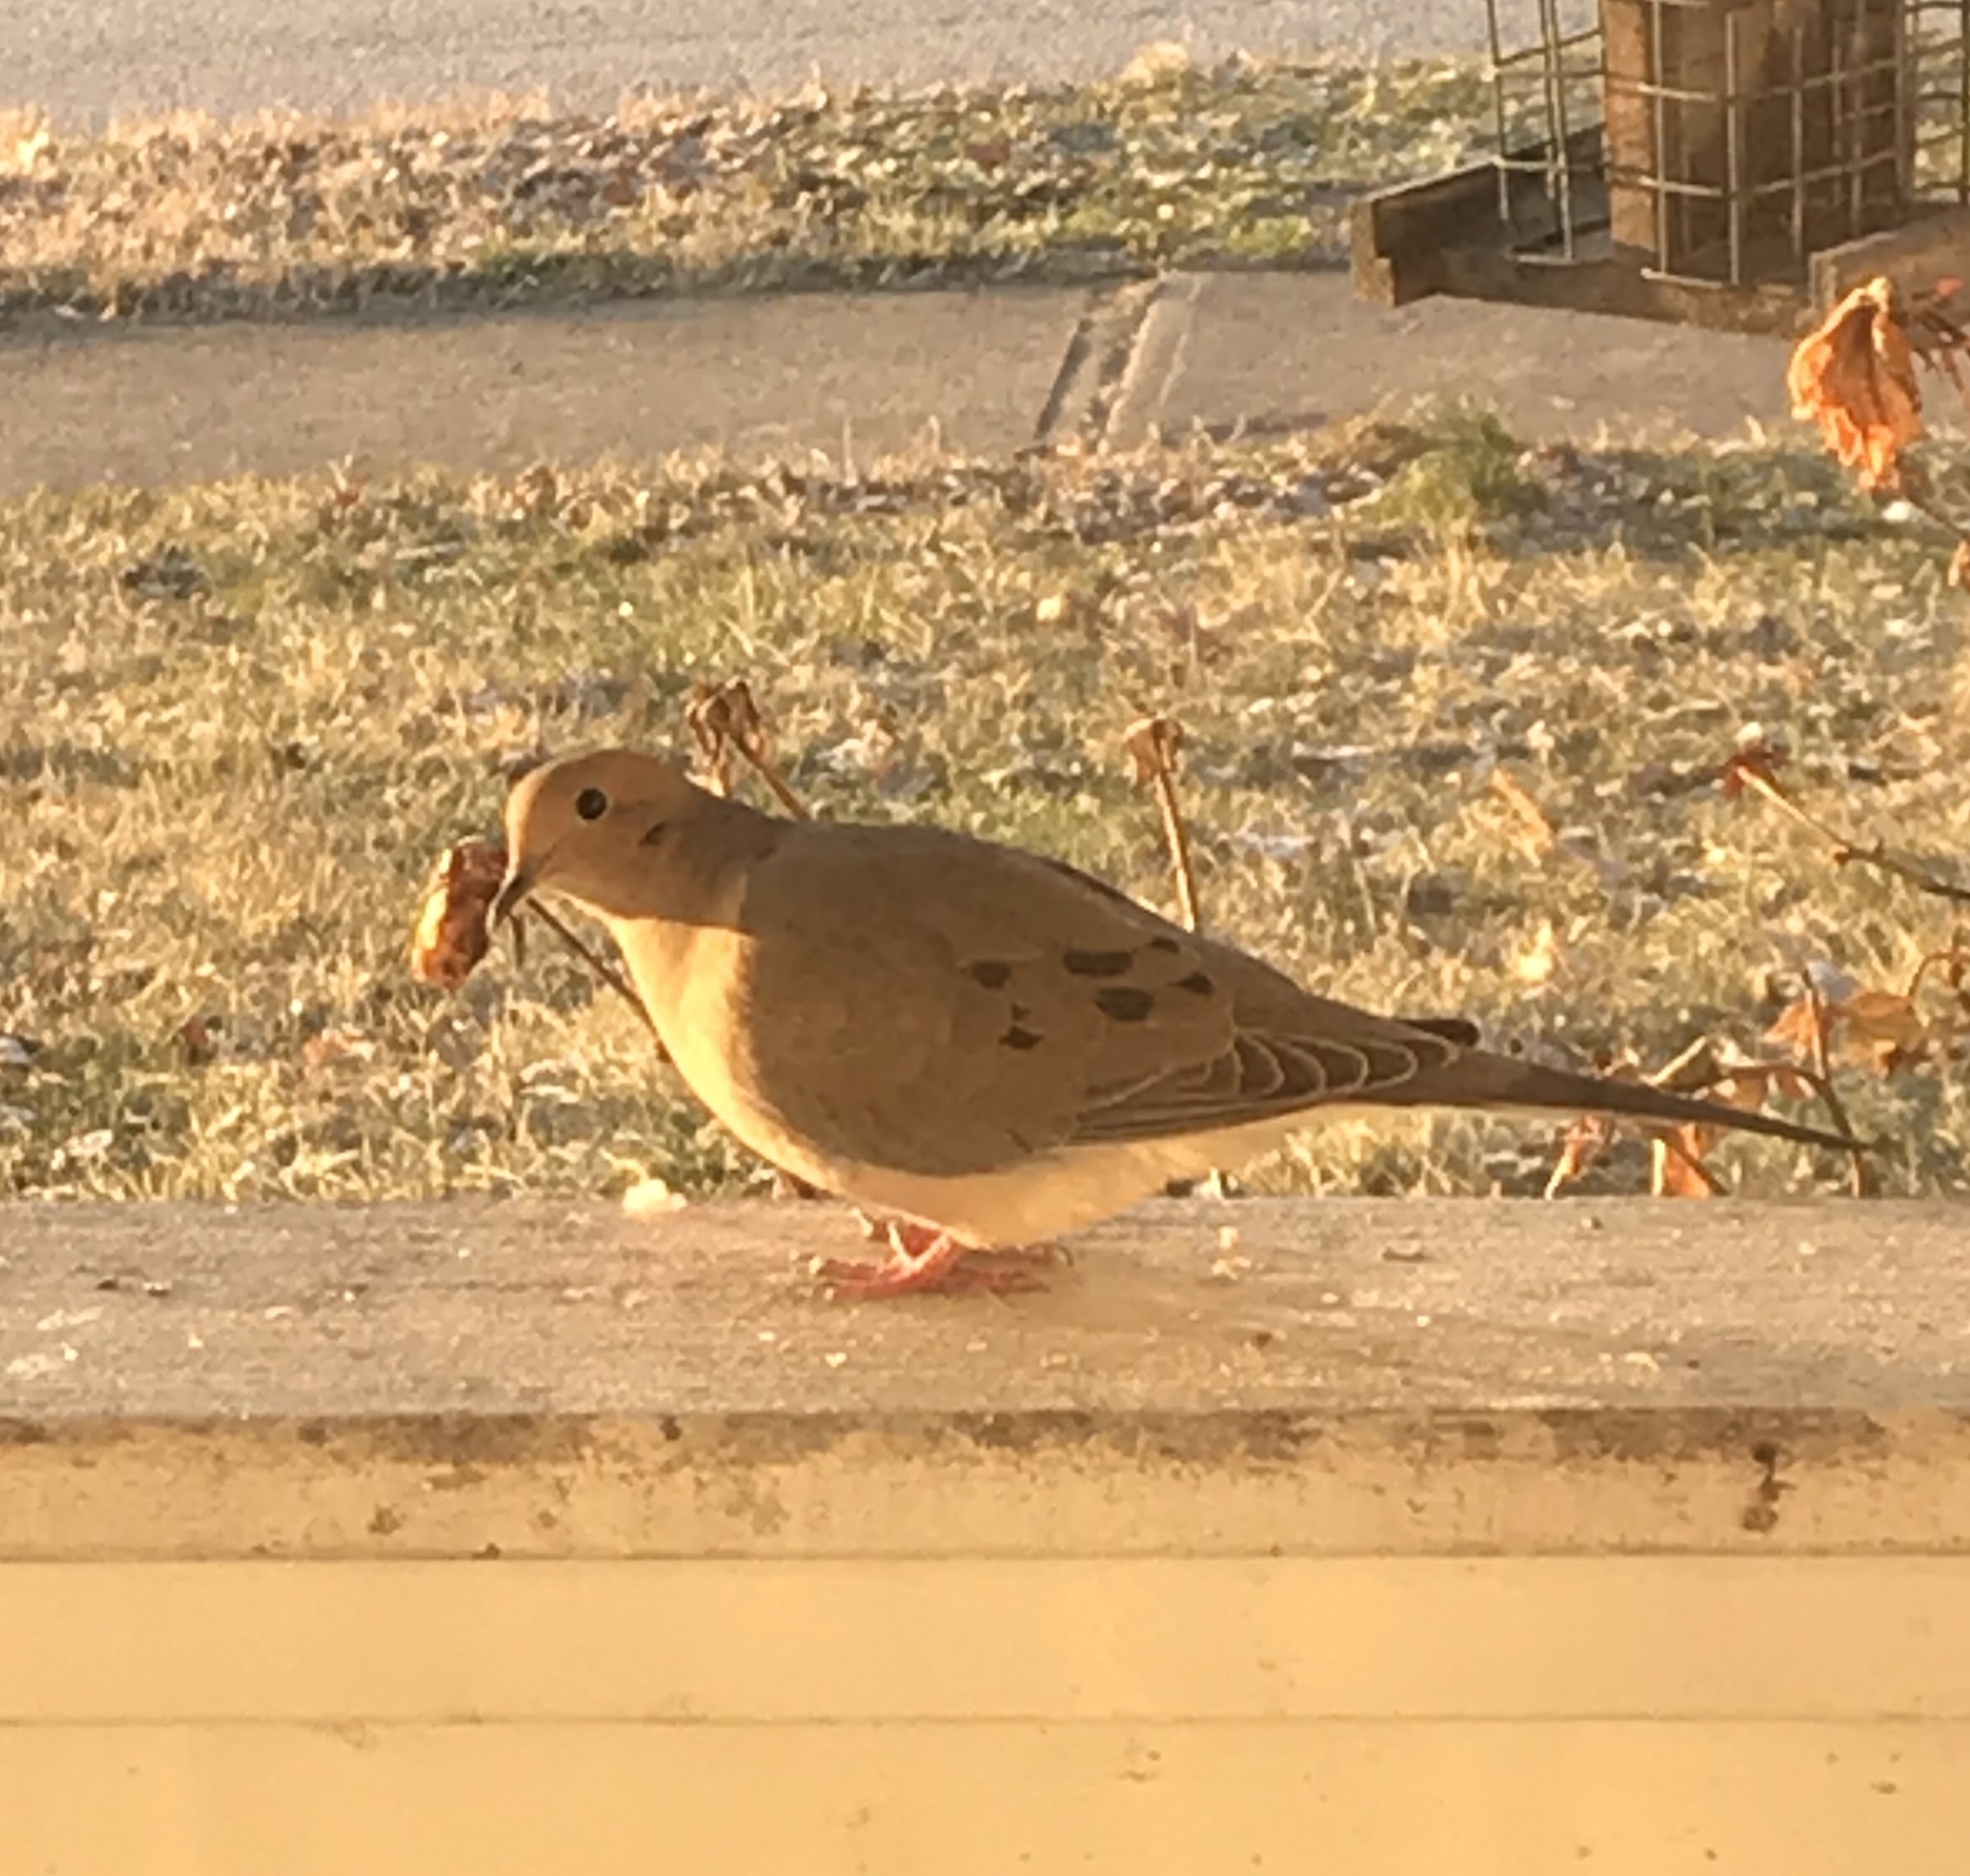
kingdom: Animalia
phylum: Chordata
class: Aves
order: Columbiformes
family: Columbidae
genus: Zenaida
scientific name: Zenaida macroura
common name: Mourning dove
